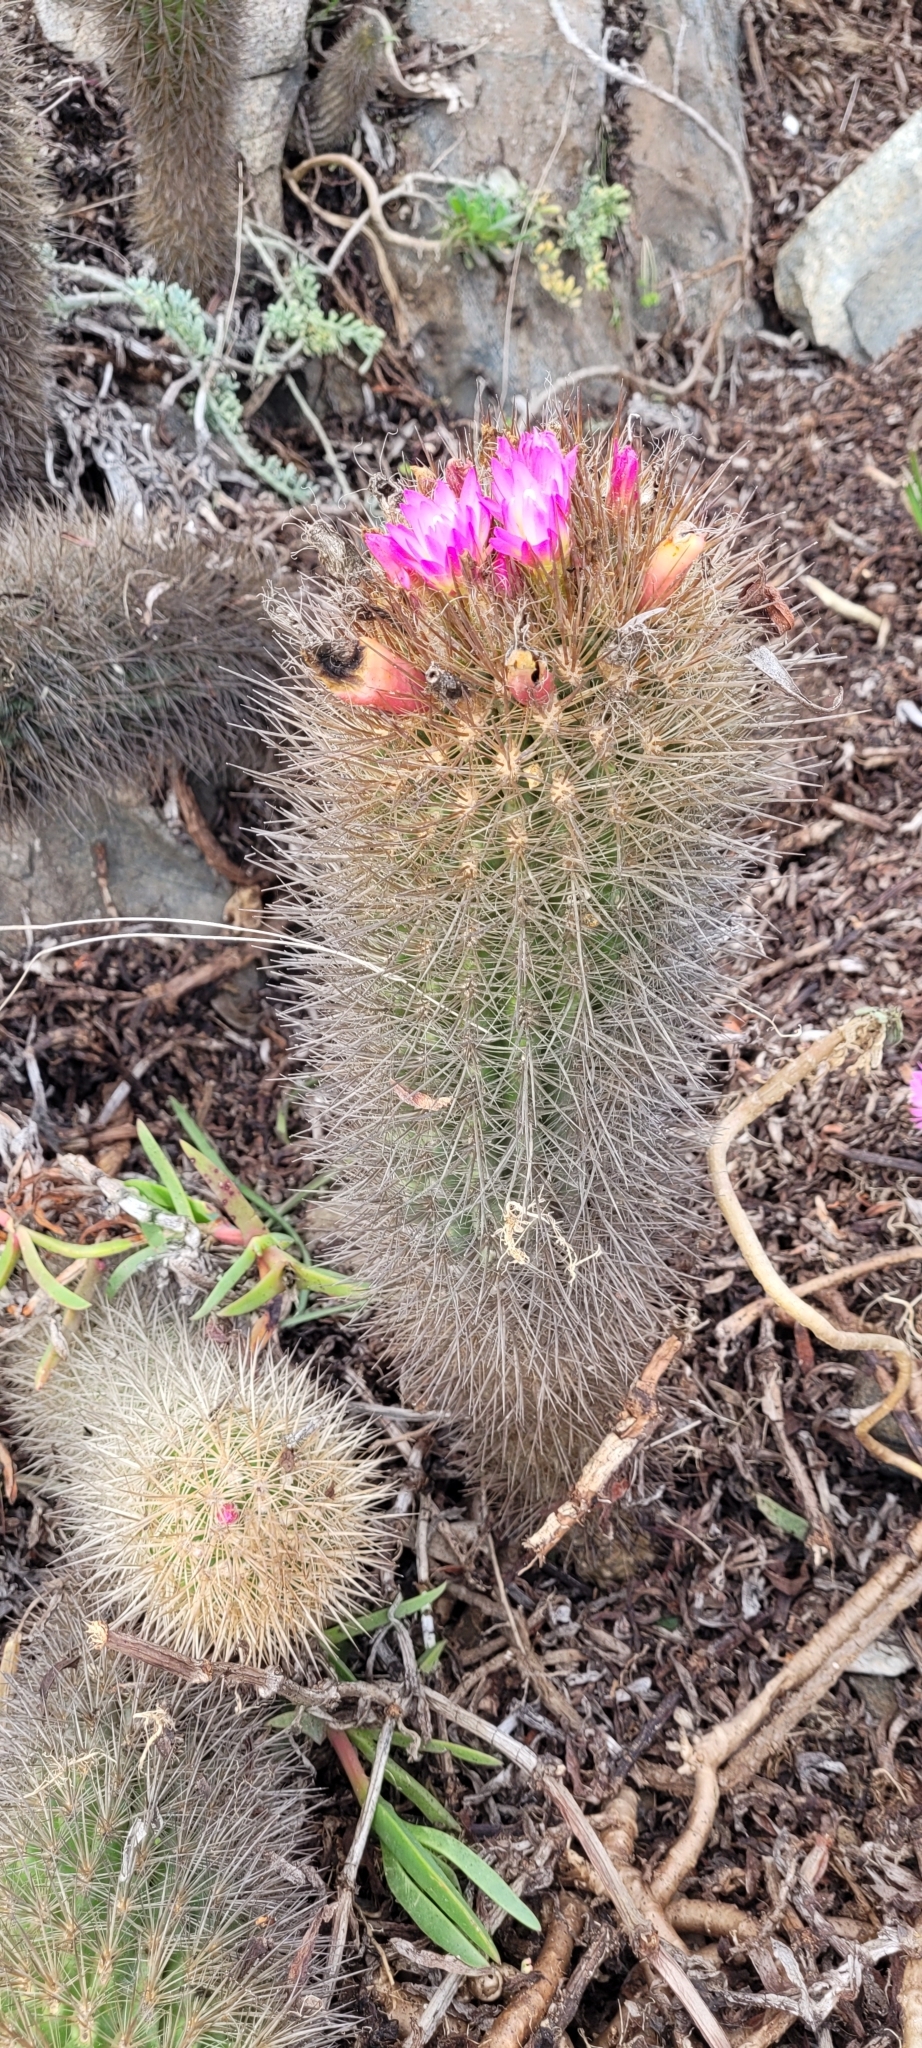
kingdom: Plantae
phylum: Tracheophyta
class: Magnoliopsida
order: Caryophyllales
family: Cactaceae
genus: Eriosyce
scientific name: Eriosyce subgibbosa
